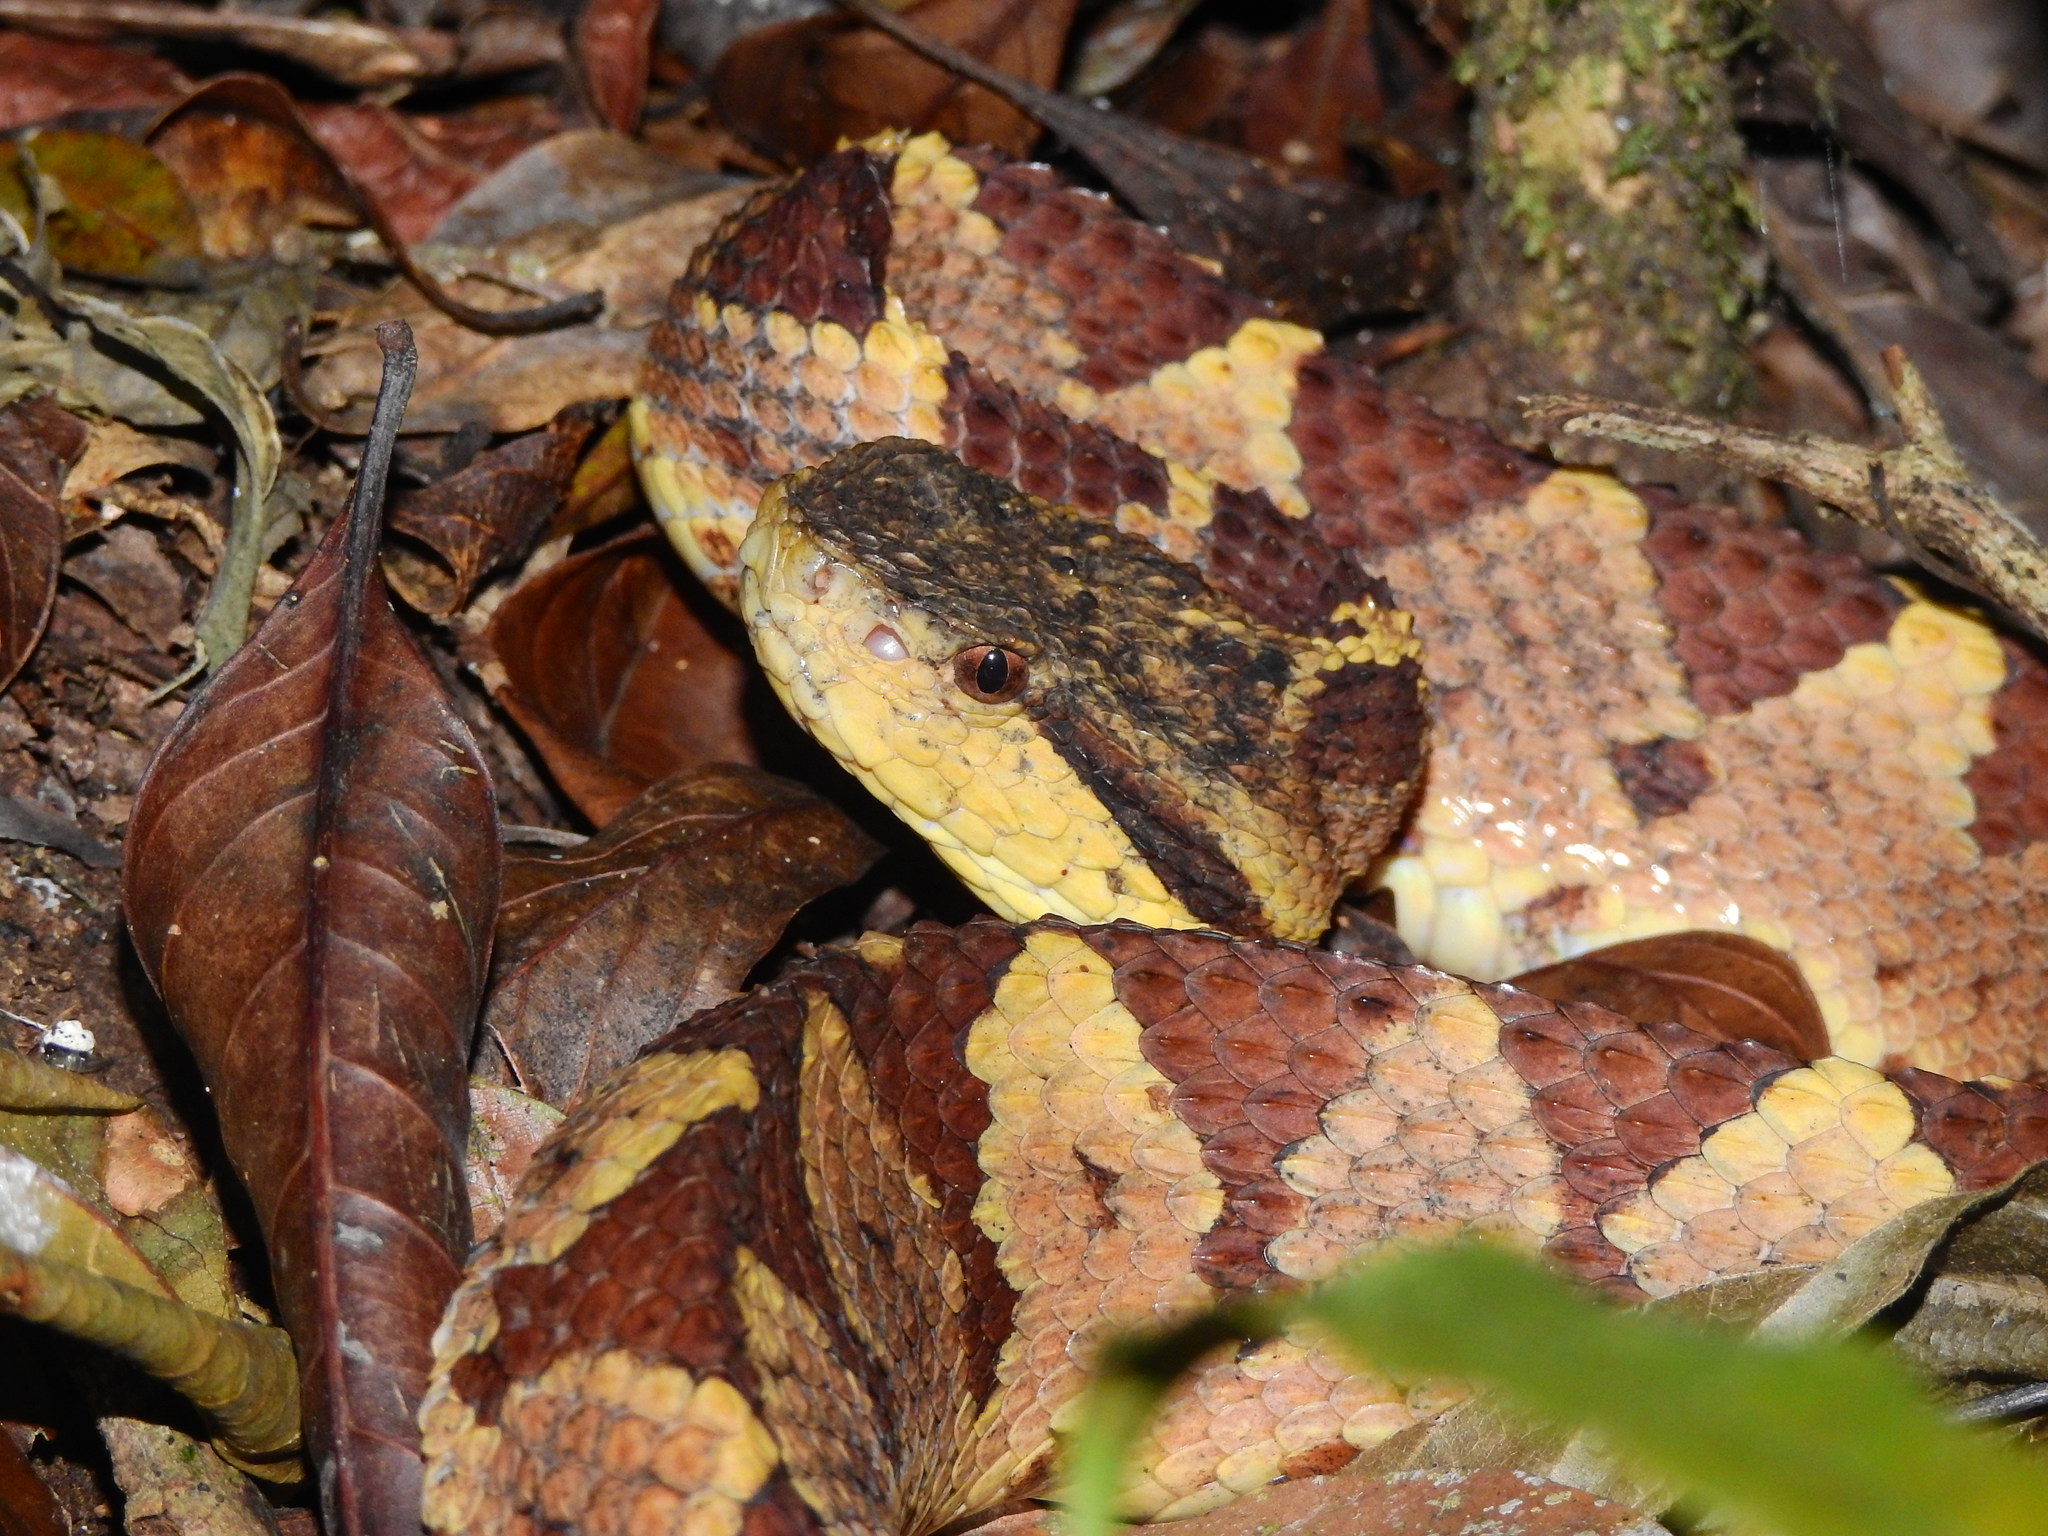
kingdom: Animalia
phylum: Chordata
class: Squamata
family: Viperidae
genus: Metlapilcoatlus
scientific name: Metlapilcoatlus mexicanus
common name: Central american jumping pit viper
